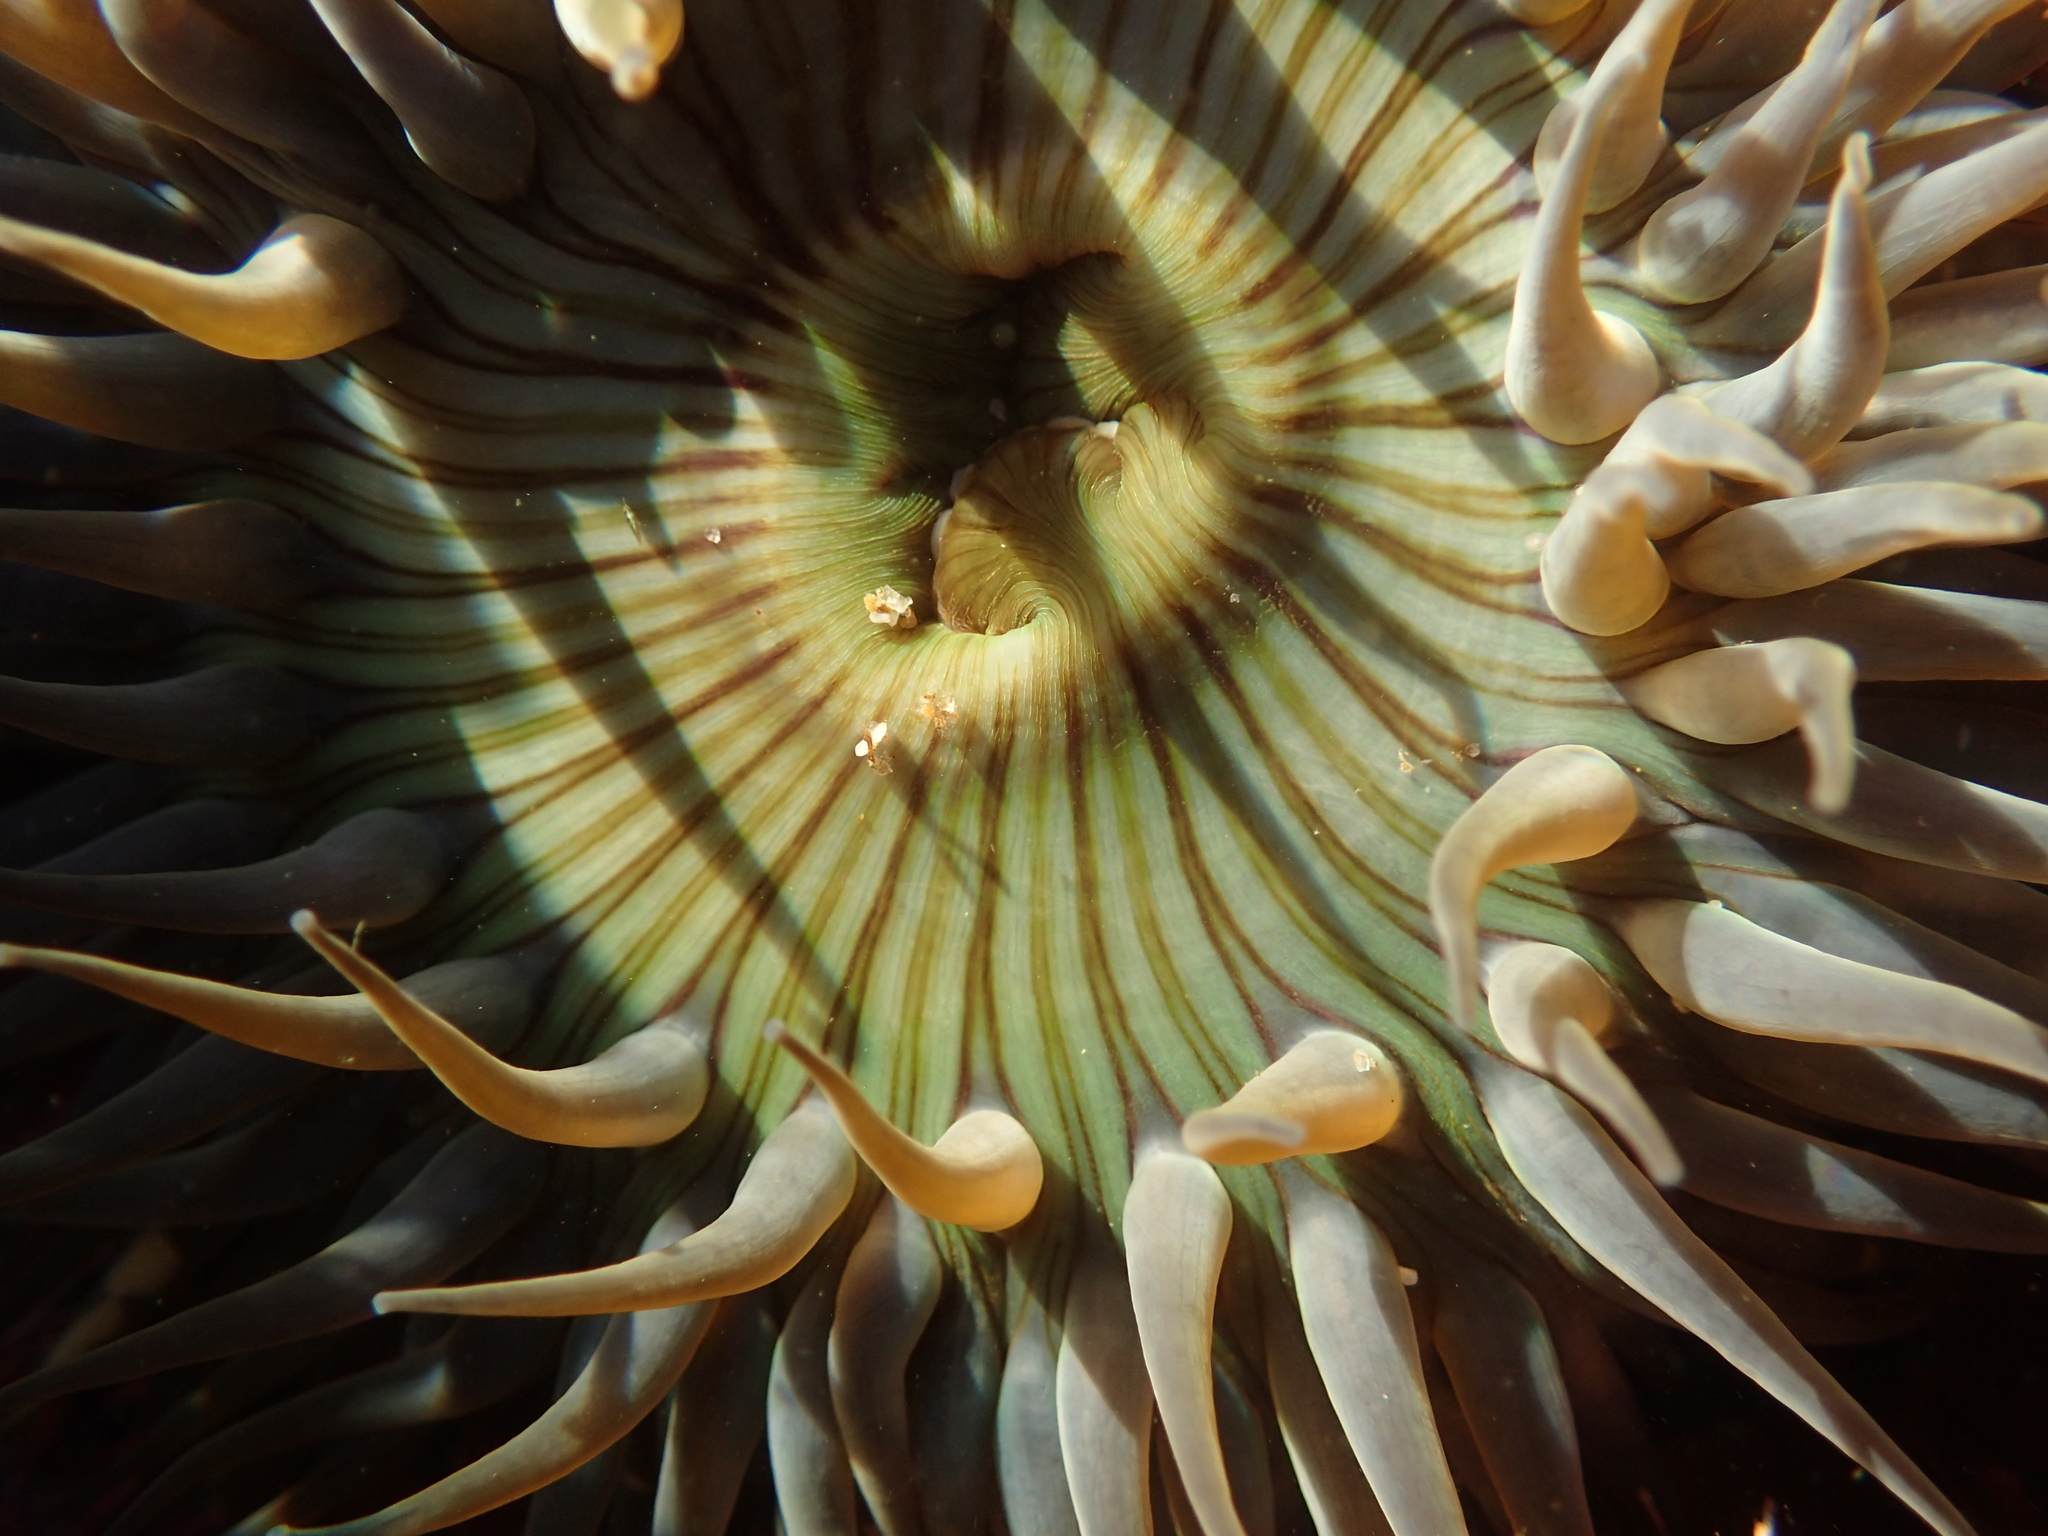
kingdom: Animalia
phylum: Cnidaria
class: Anthozoa
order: Actiniaria
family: Actiniidae
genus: Anthopleura
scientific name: Anthopleura sola
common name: Sun anemone
